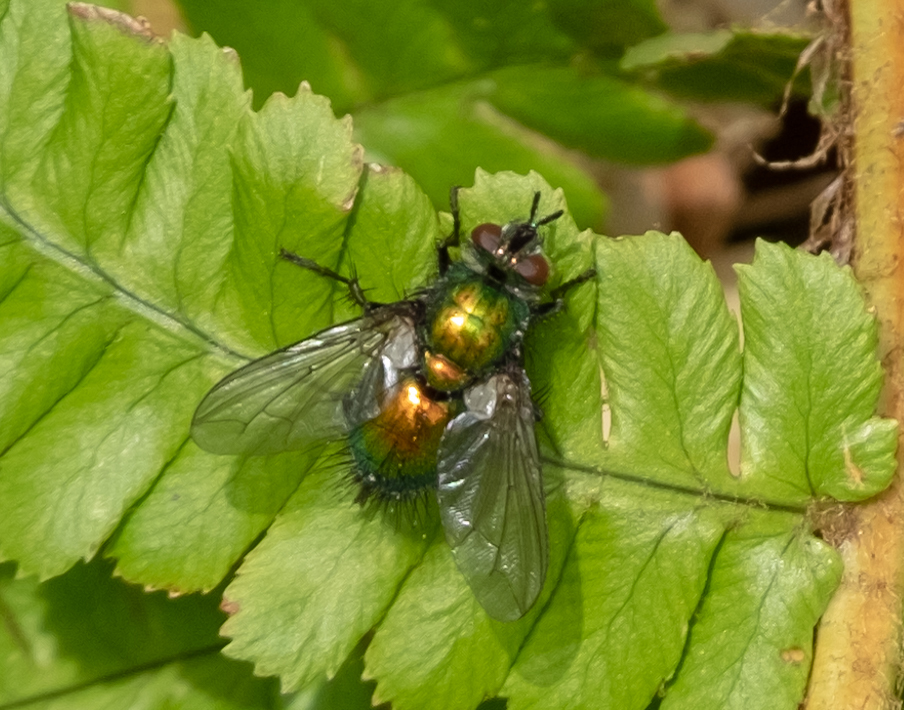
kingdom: Animalia
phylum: Arthropoda
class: Insecta
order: Diptera
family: Tachinidae
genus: Gymnocheta
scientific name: Gymnocheta viridis
